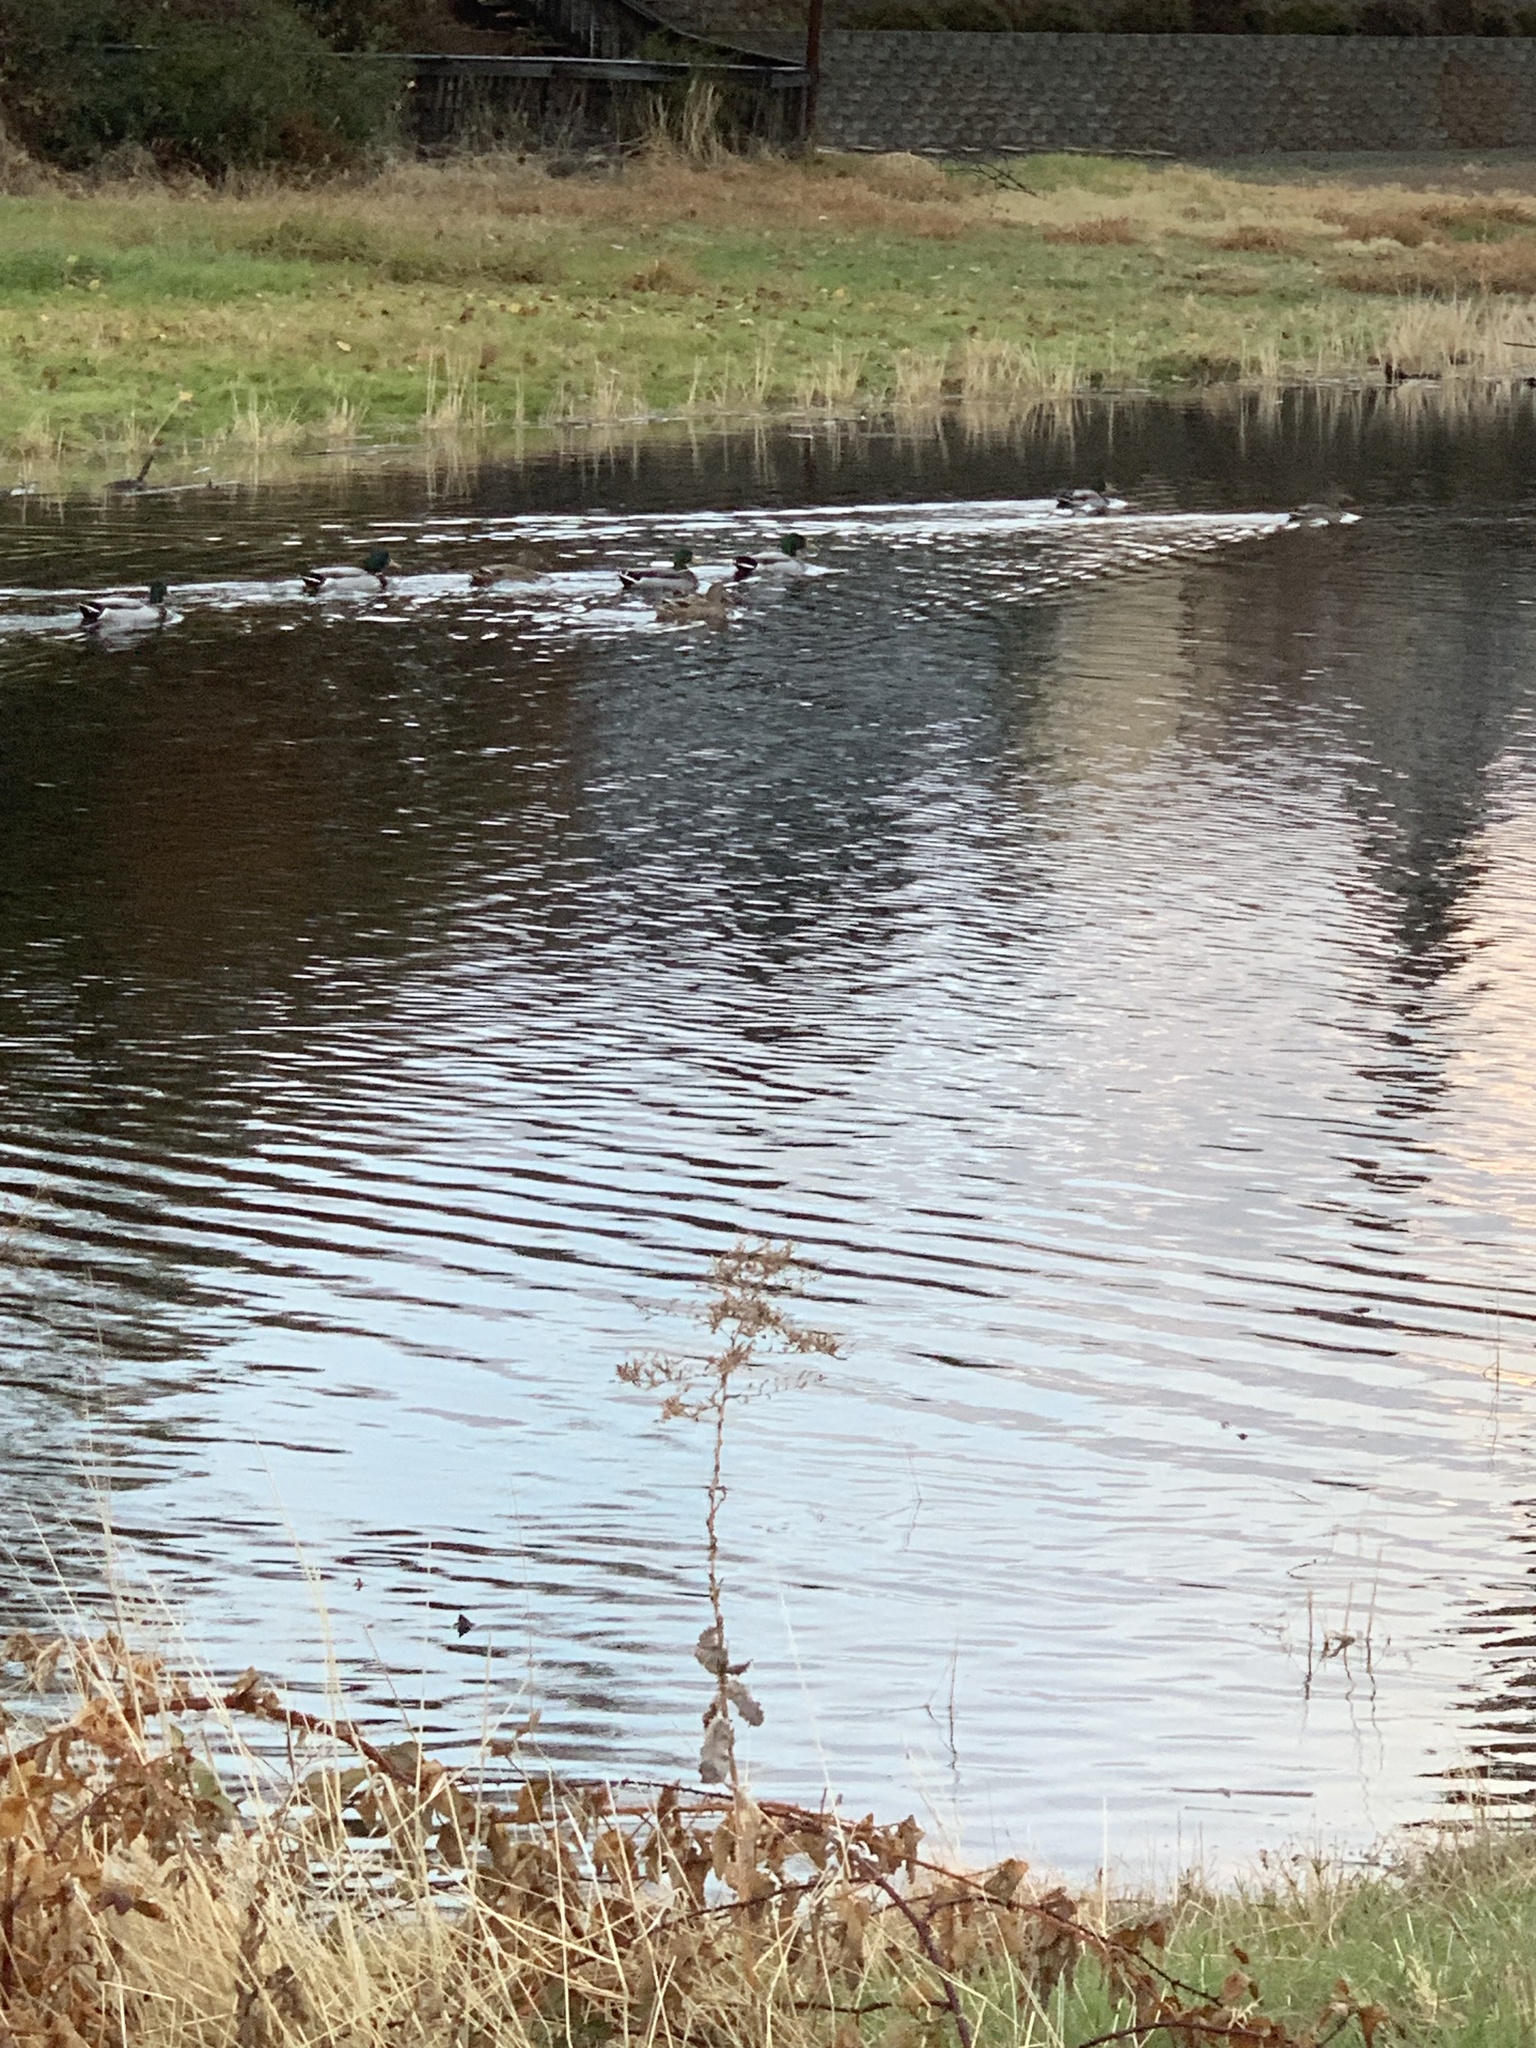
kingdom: Animalia
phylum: Chordata
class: Aves
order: Anseriformes
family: Anatidae
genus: Anas
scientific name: Anas platyrhynchos
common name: Mallard
